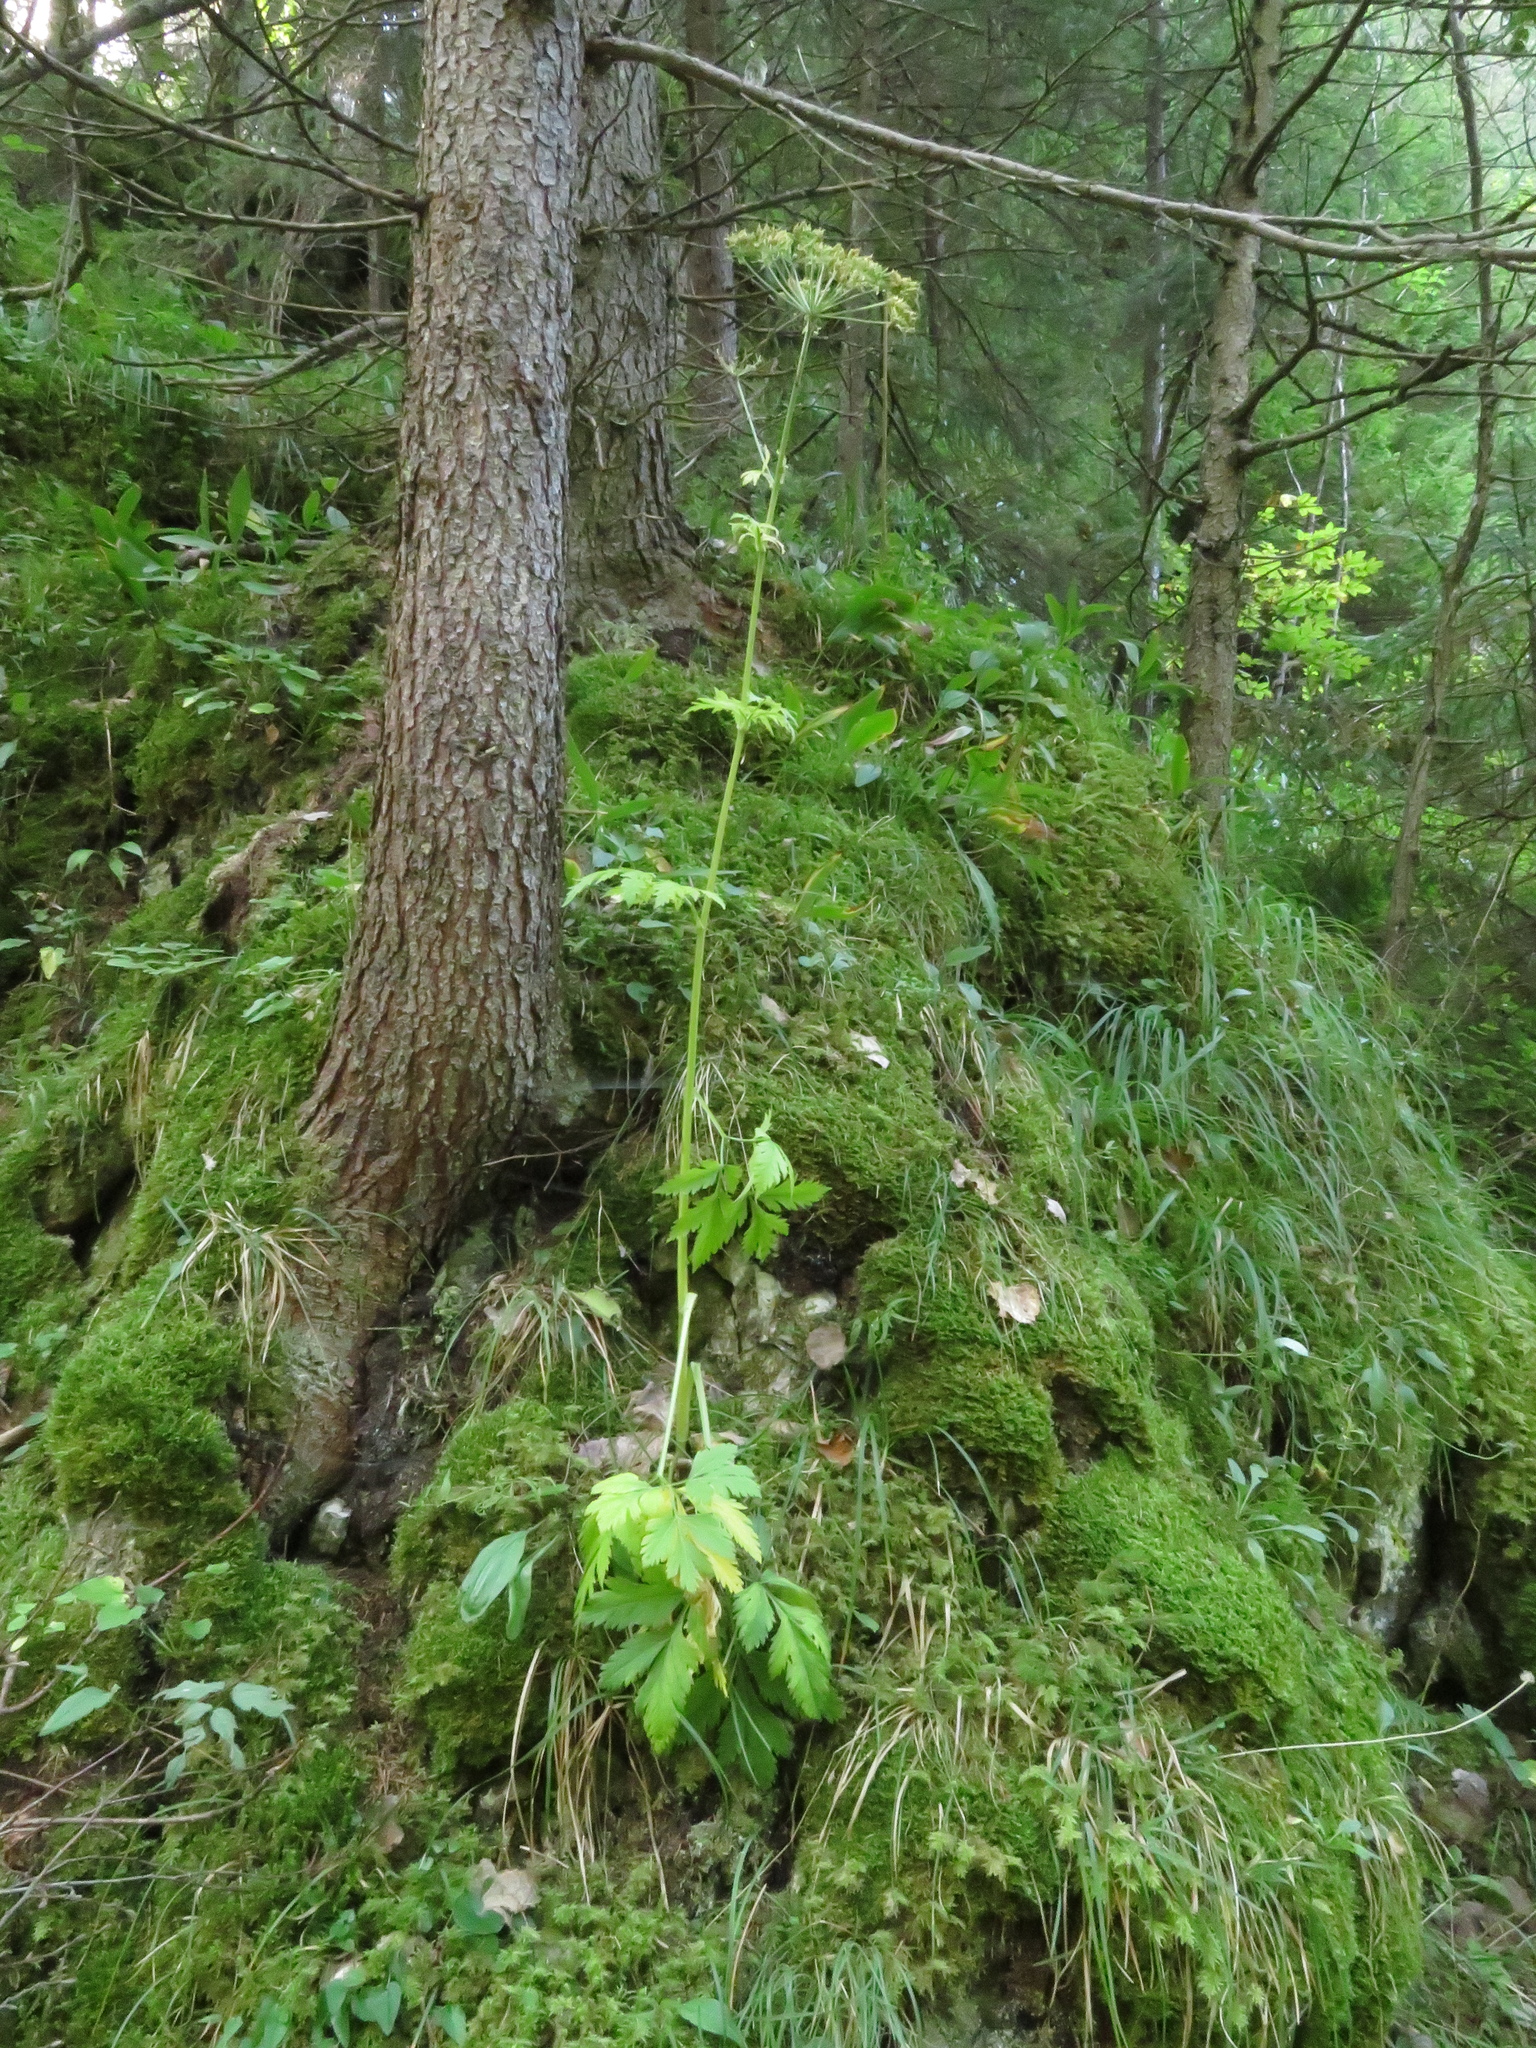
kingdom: Plantae
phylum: Tracheophyta
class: Magnoliopsida
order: Apiales
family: Apiaceae
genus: Pleurospermum
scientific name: Pleurospermum austriacum
